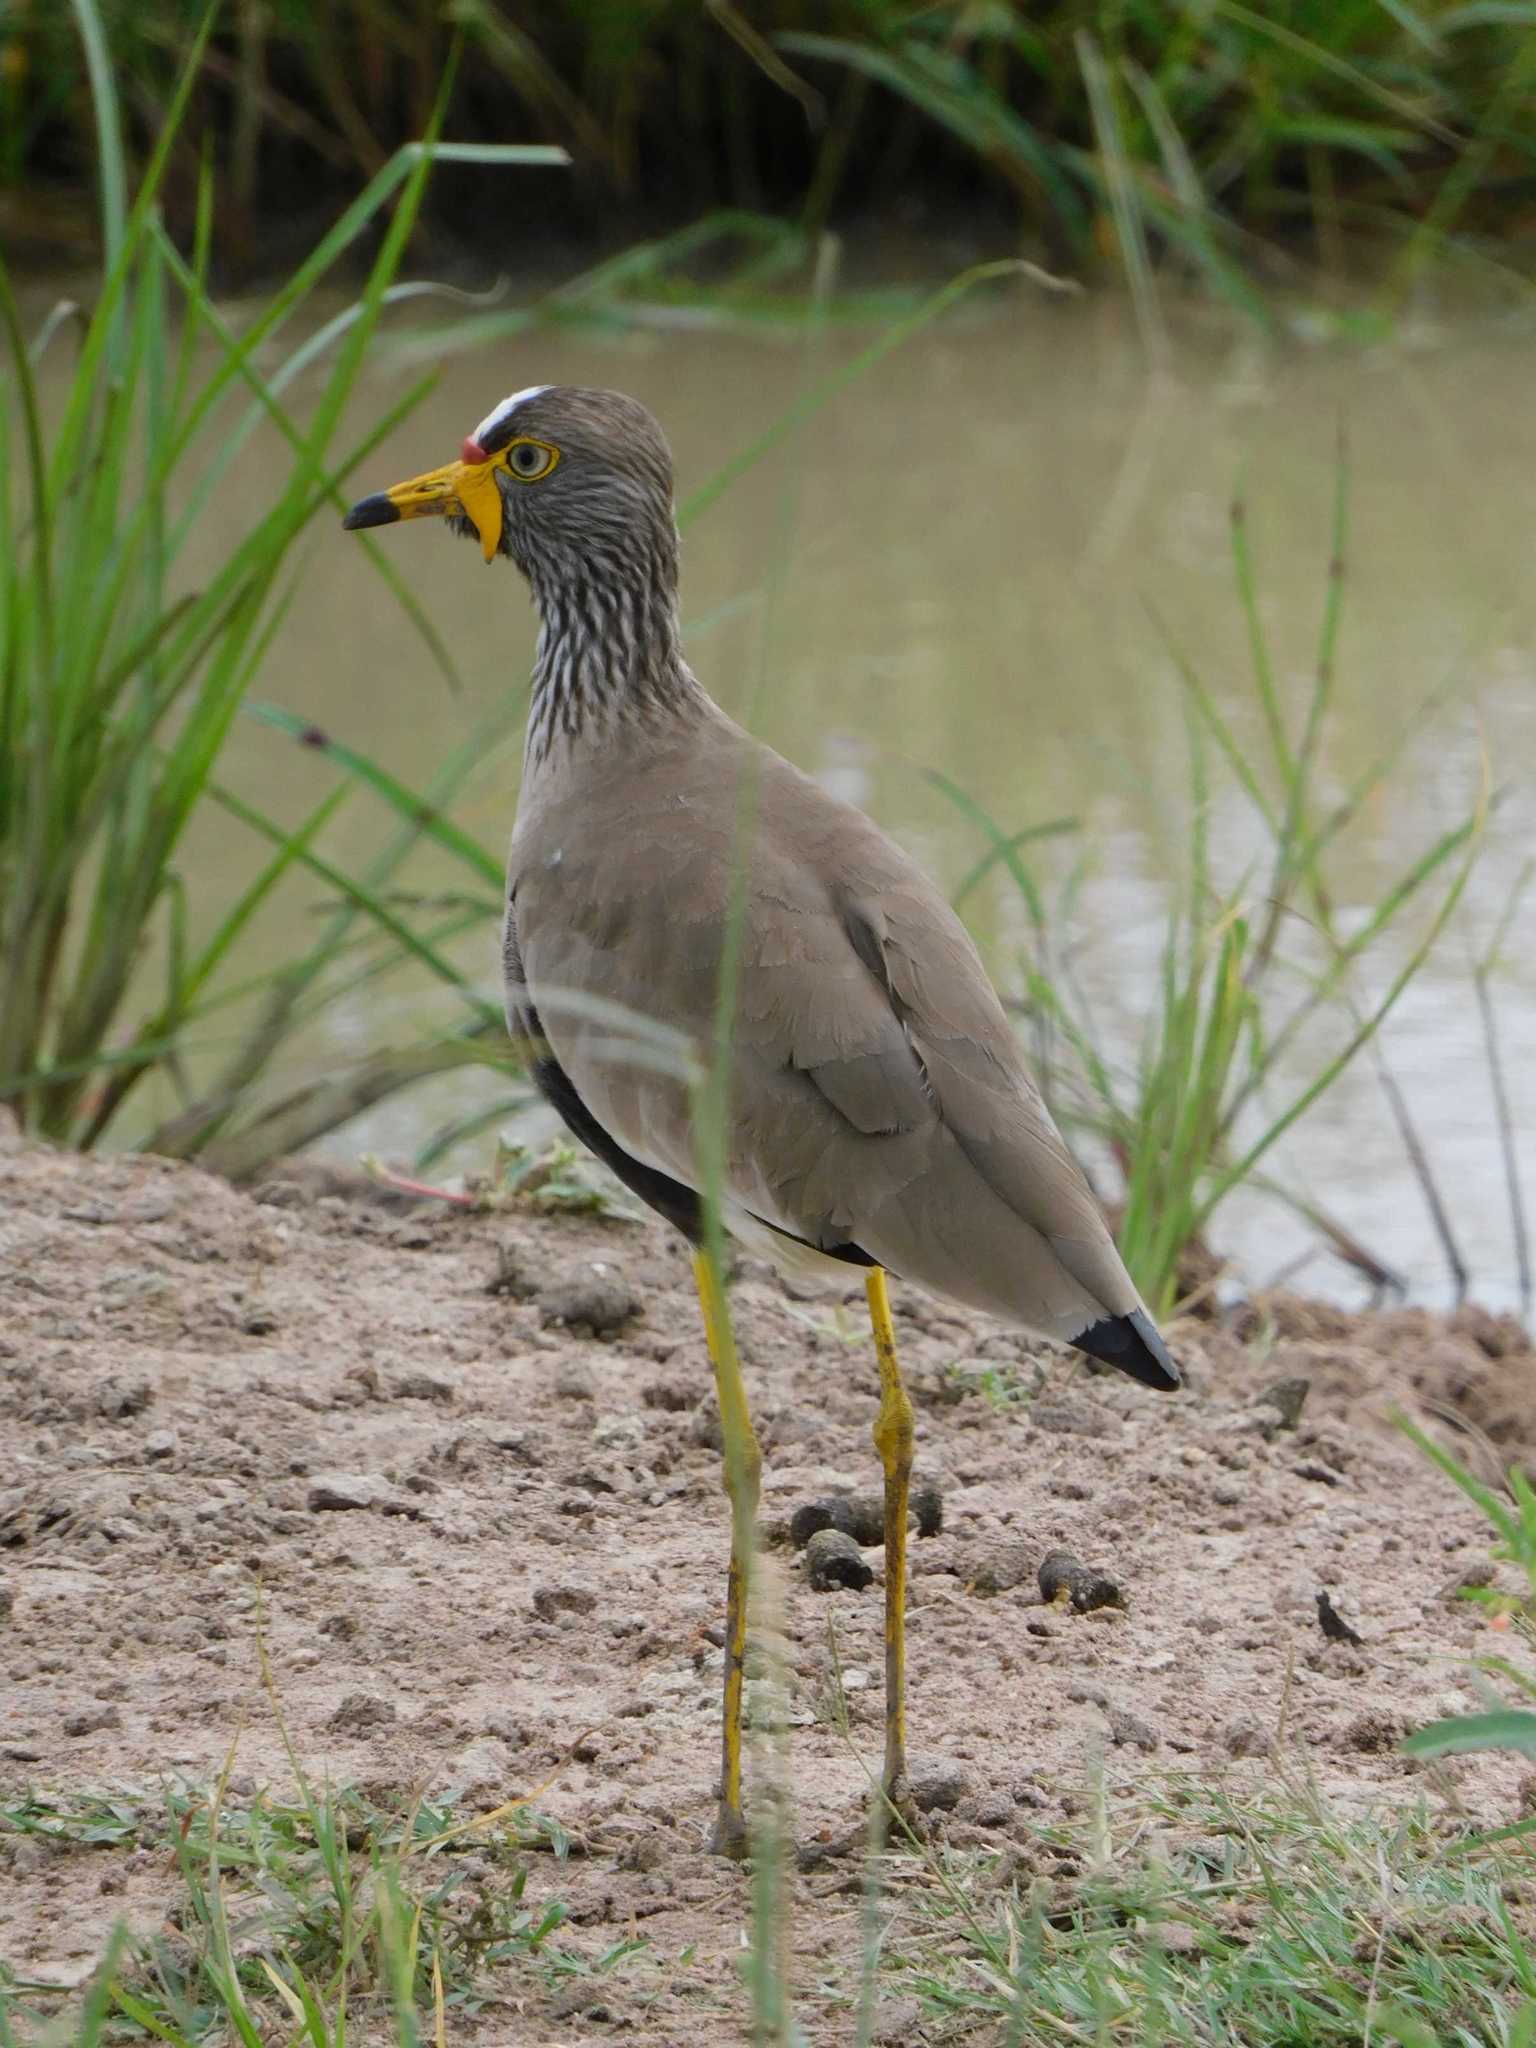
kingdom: Animalia
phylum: Chordata
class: Aves
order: Charadriiformes
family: Charadriidae
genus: Vanellus
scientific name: Vanellus senegallus
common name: African wattled lapwing
